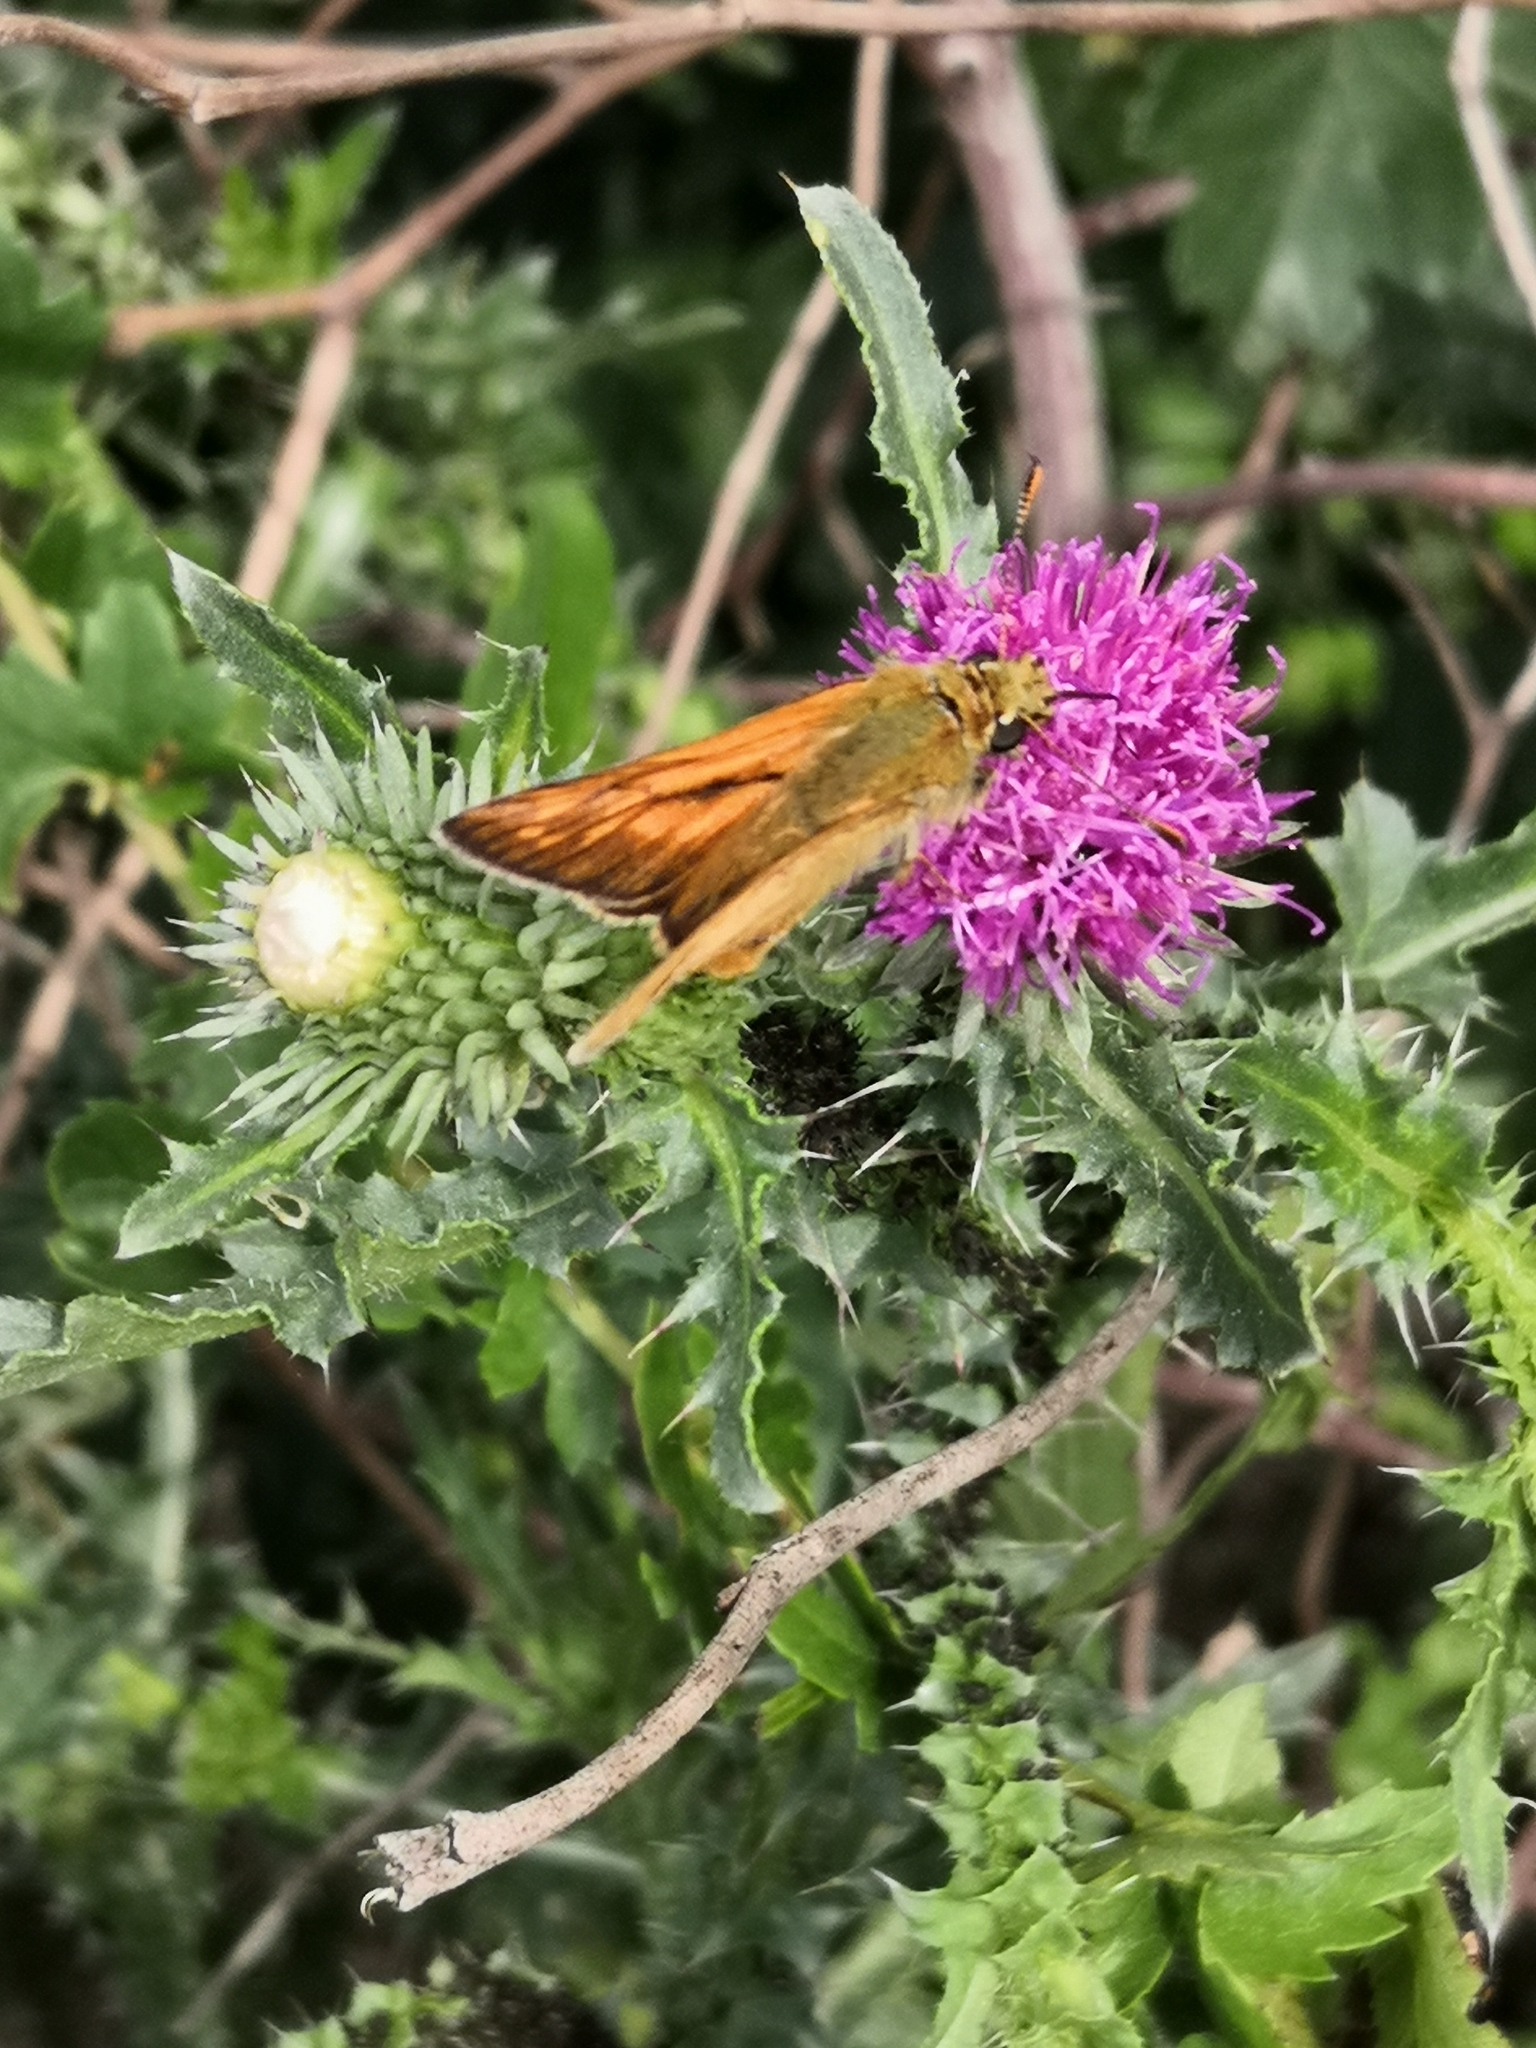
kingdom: Animalia
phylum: Arthropoda
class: Insecta
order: Lepidoptera
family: Hesperiidae
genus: Ochlodes
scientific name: Ochlodes venata
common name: Large skipper
